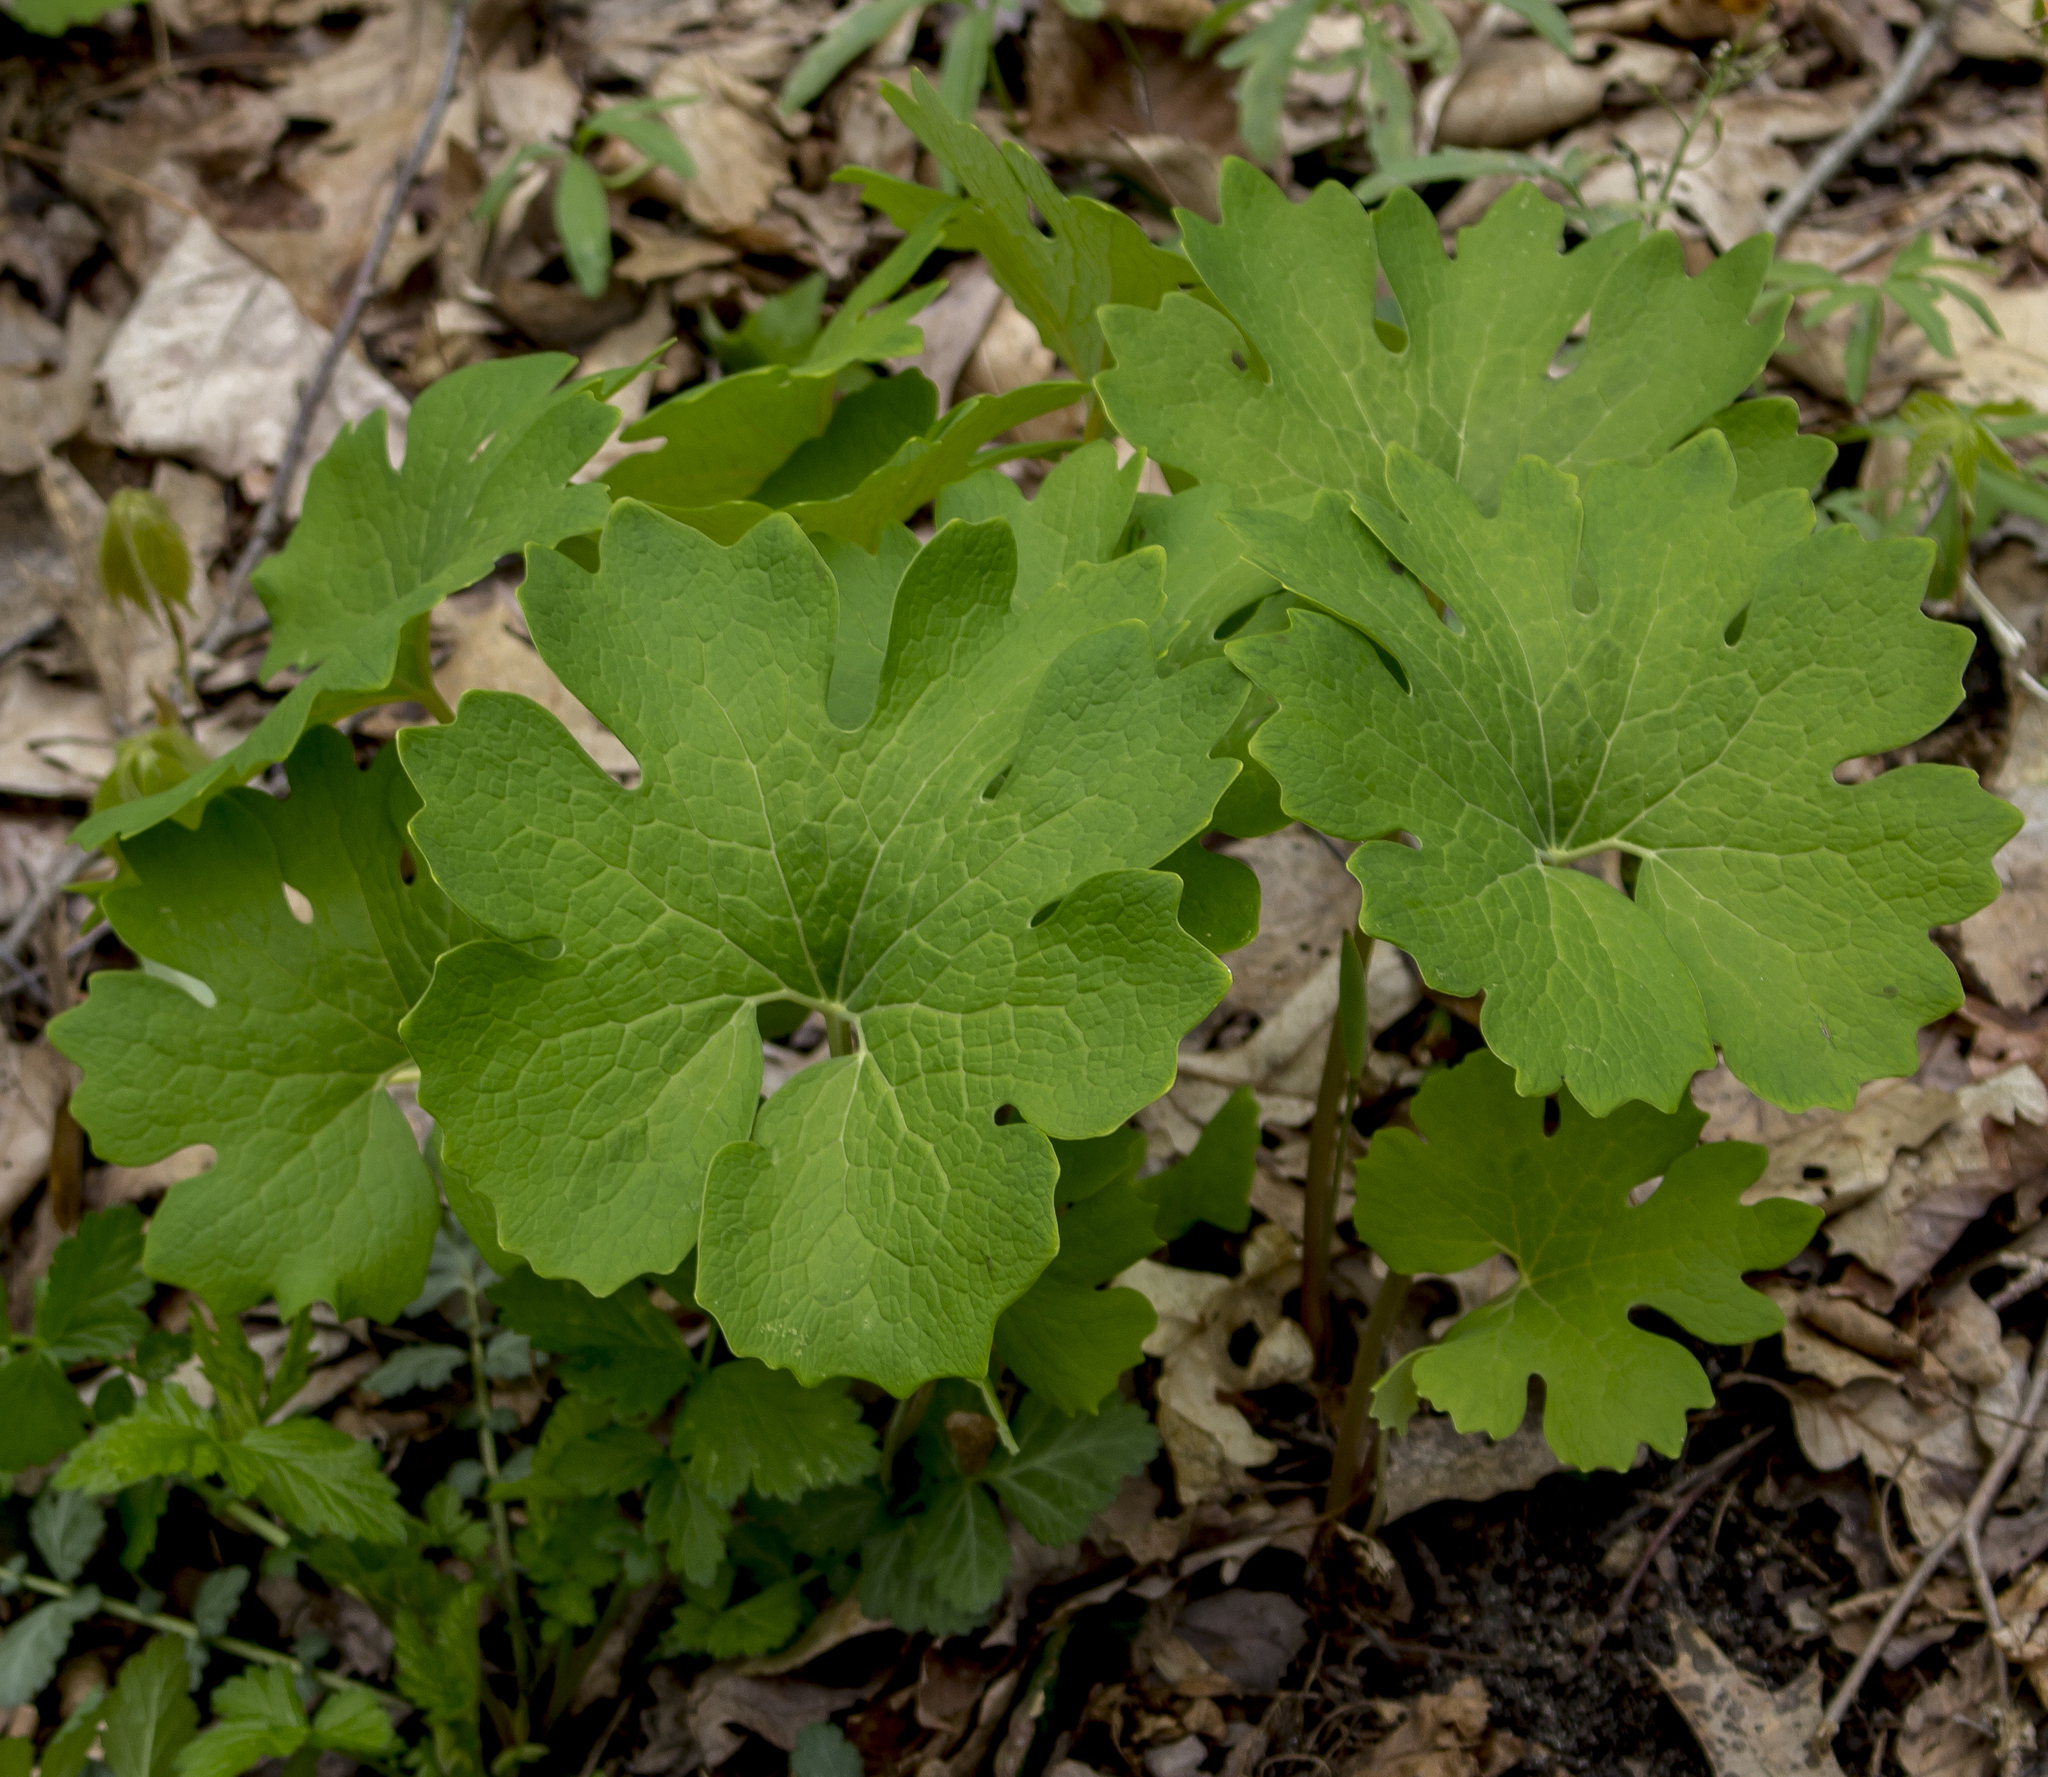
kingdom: Plantae
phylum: Tracheophyta
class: Magnoliopsida
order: Ranunculales
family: Papaveraceae
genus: Sanguinaria
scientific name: Sanguinaria canadensis
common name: Bloodroot
